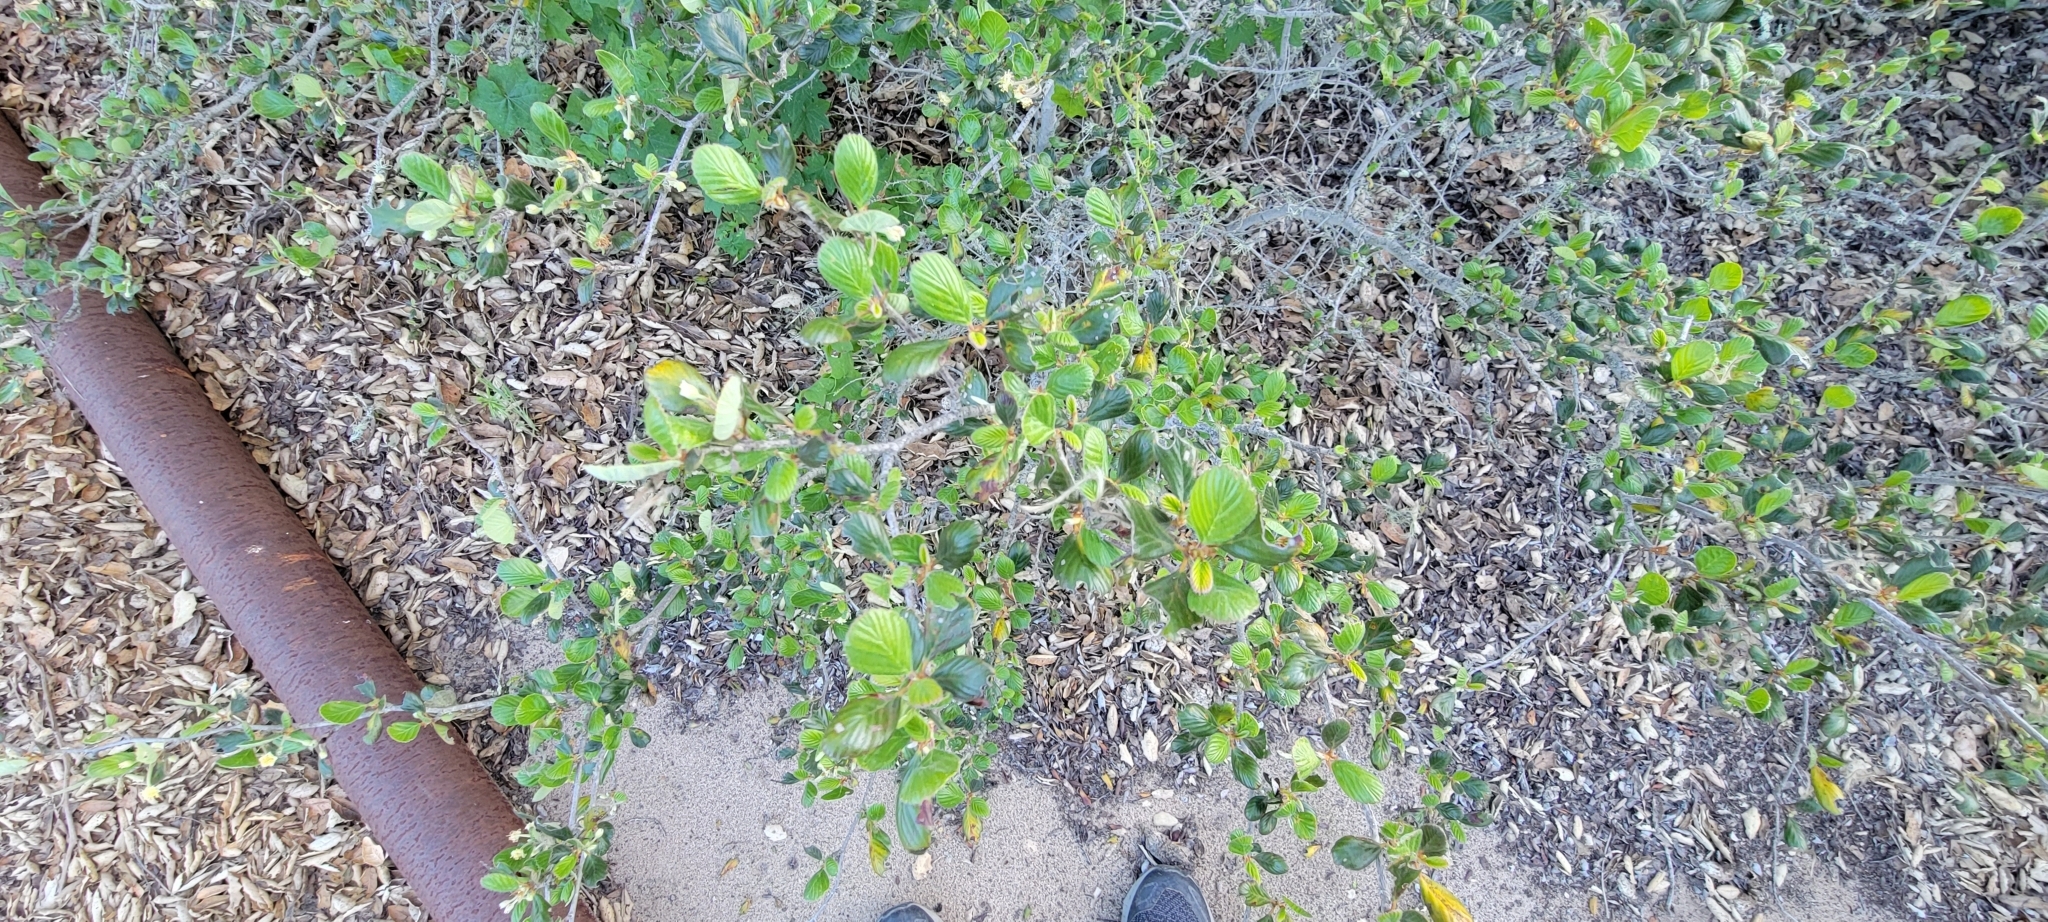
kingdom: Plantae
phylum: Tracheophyta
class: Magnoliopsida
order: Rosales
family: Rosaceae
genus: Cercocarpus
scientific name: Cercocarpus betuloides
